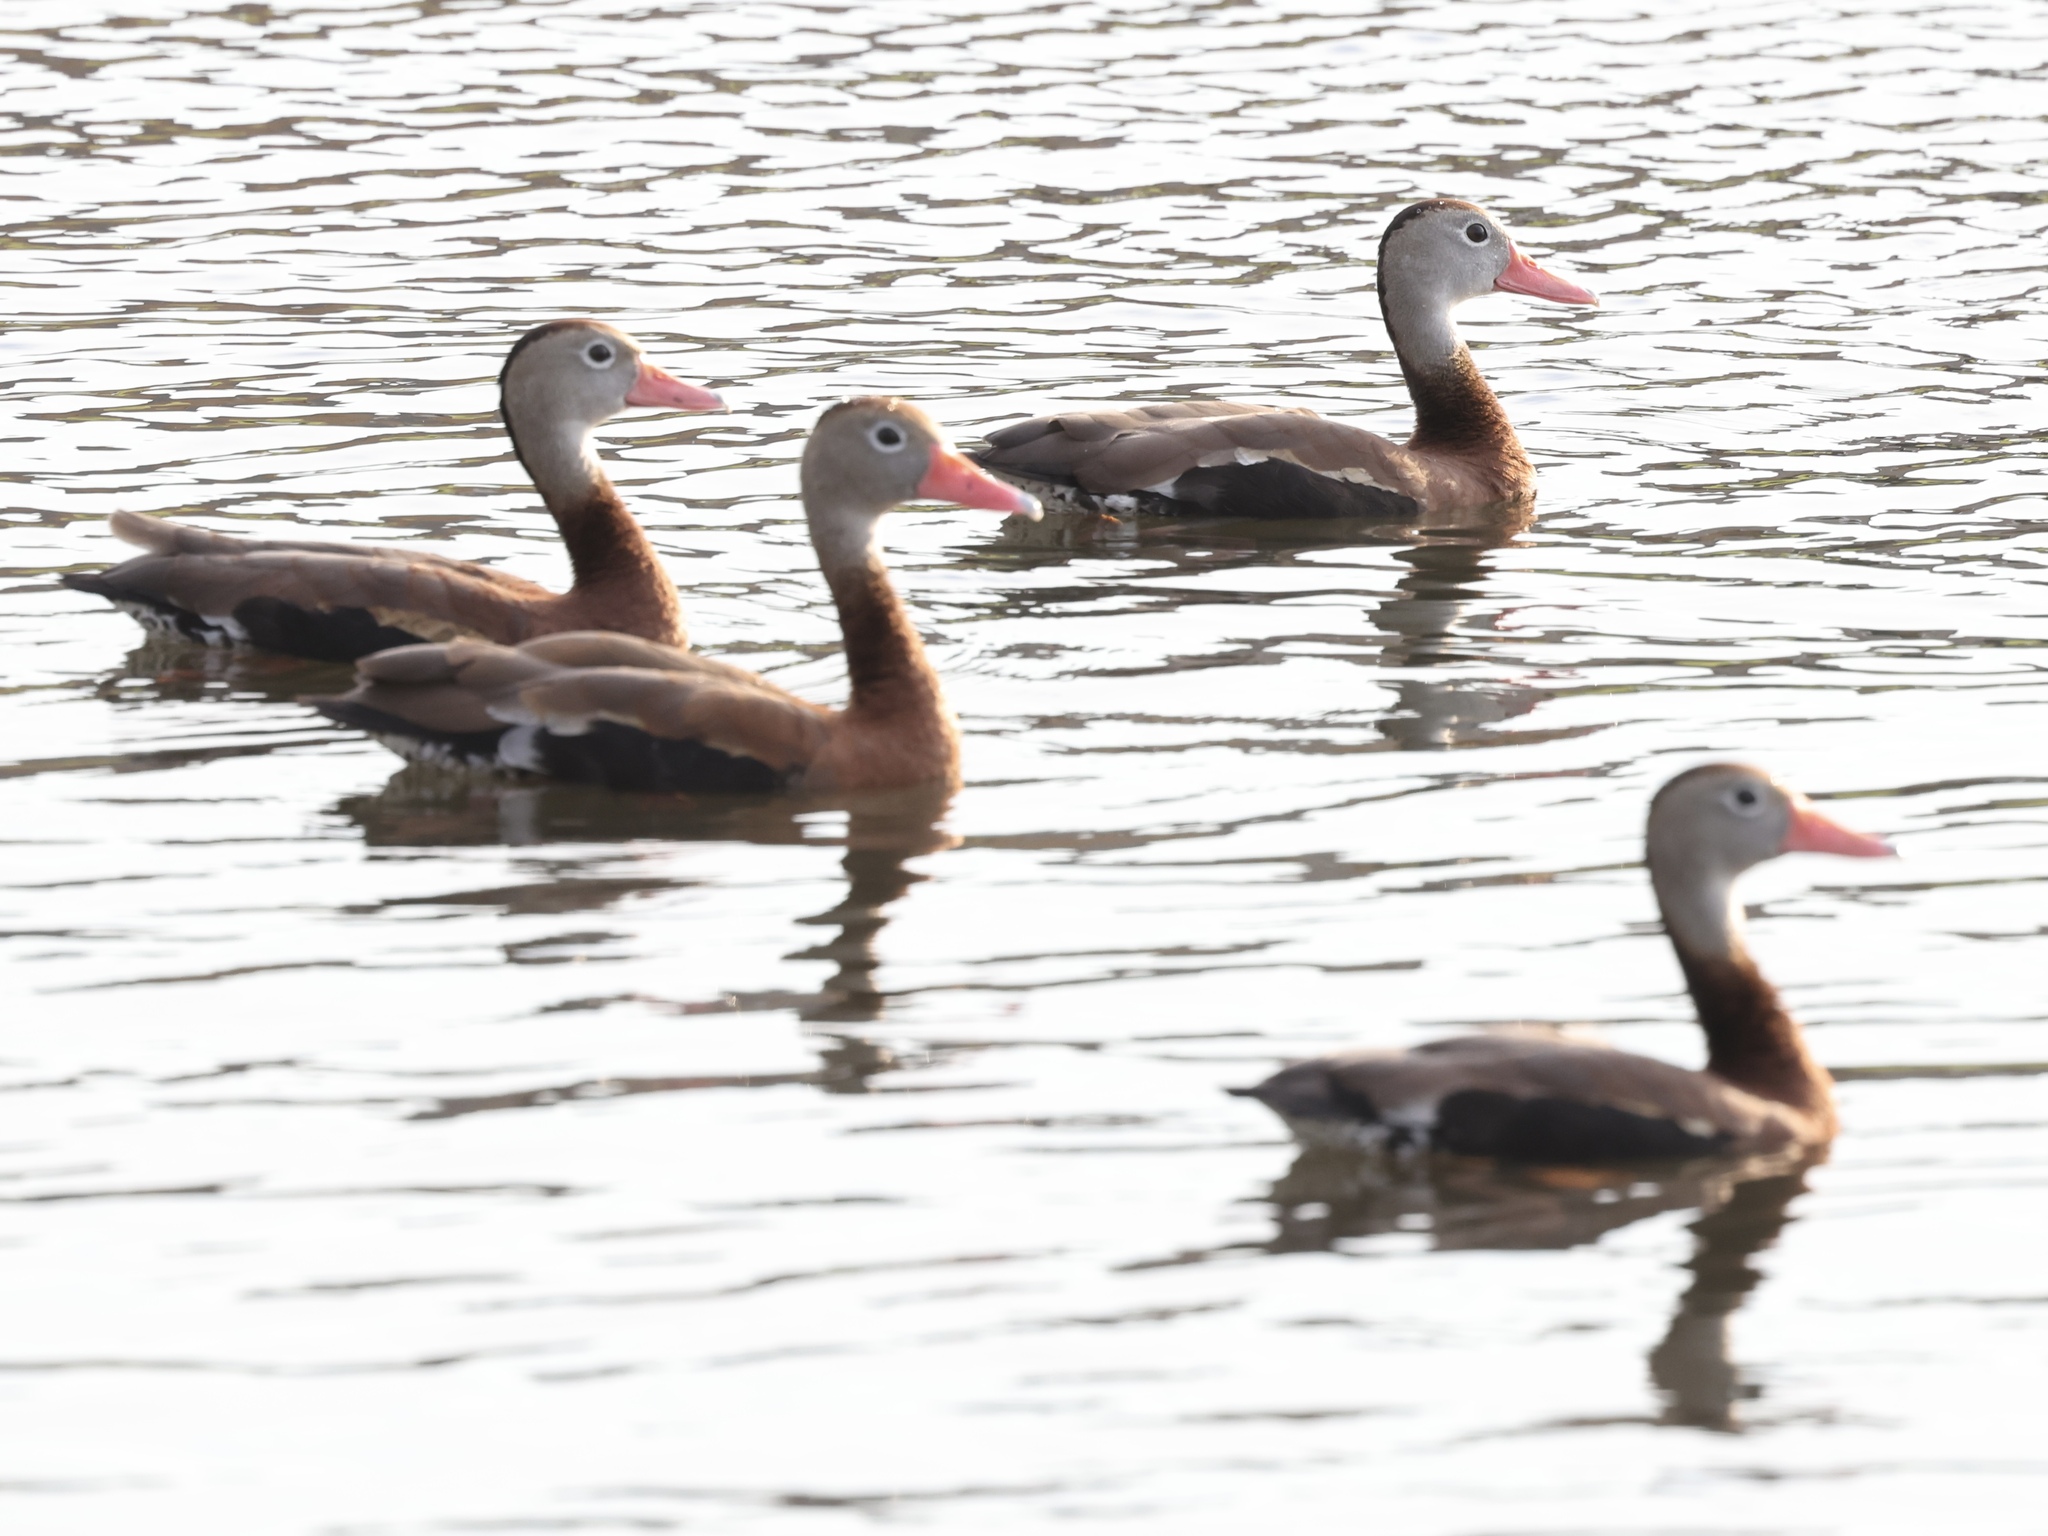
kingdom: Animalia
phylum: Chordata
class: Aves
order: Anseriformes
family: Anatidae
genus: Dendrocygna
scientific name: Dendrocygna autumnalis
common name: Black-bellied whistling duck
